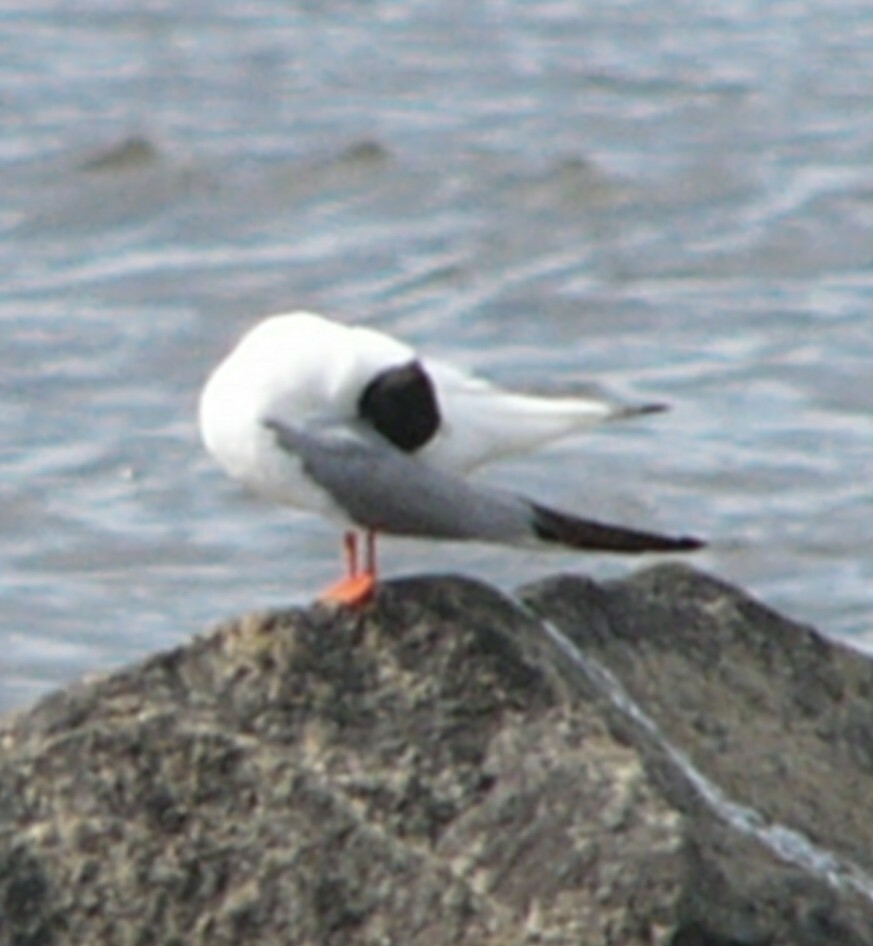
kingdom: Animalia
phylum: Chordata
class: Aves
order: Charadriiformes
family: Laridae
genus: Chroicocephalus
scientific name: Chroicocephalus philadelphia
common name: Bonaparte's gull
